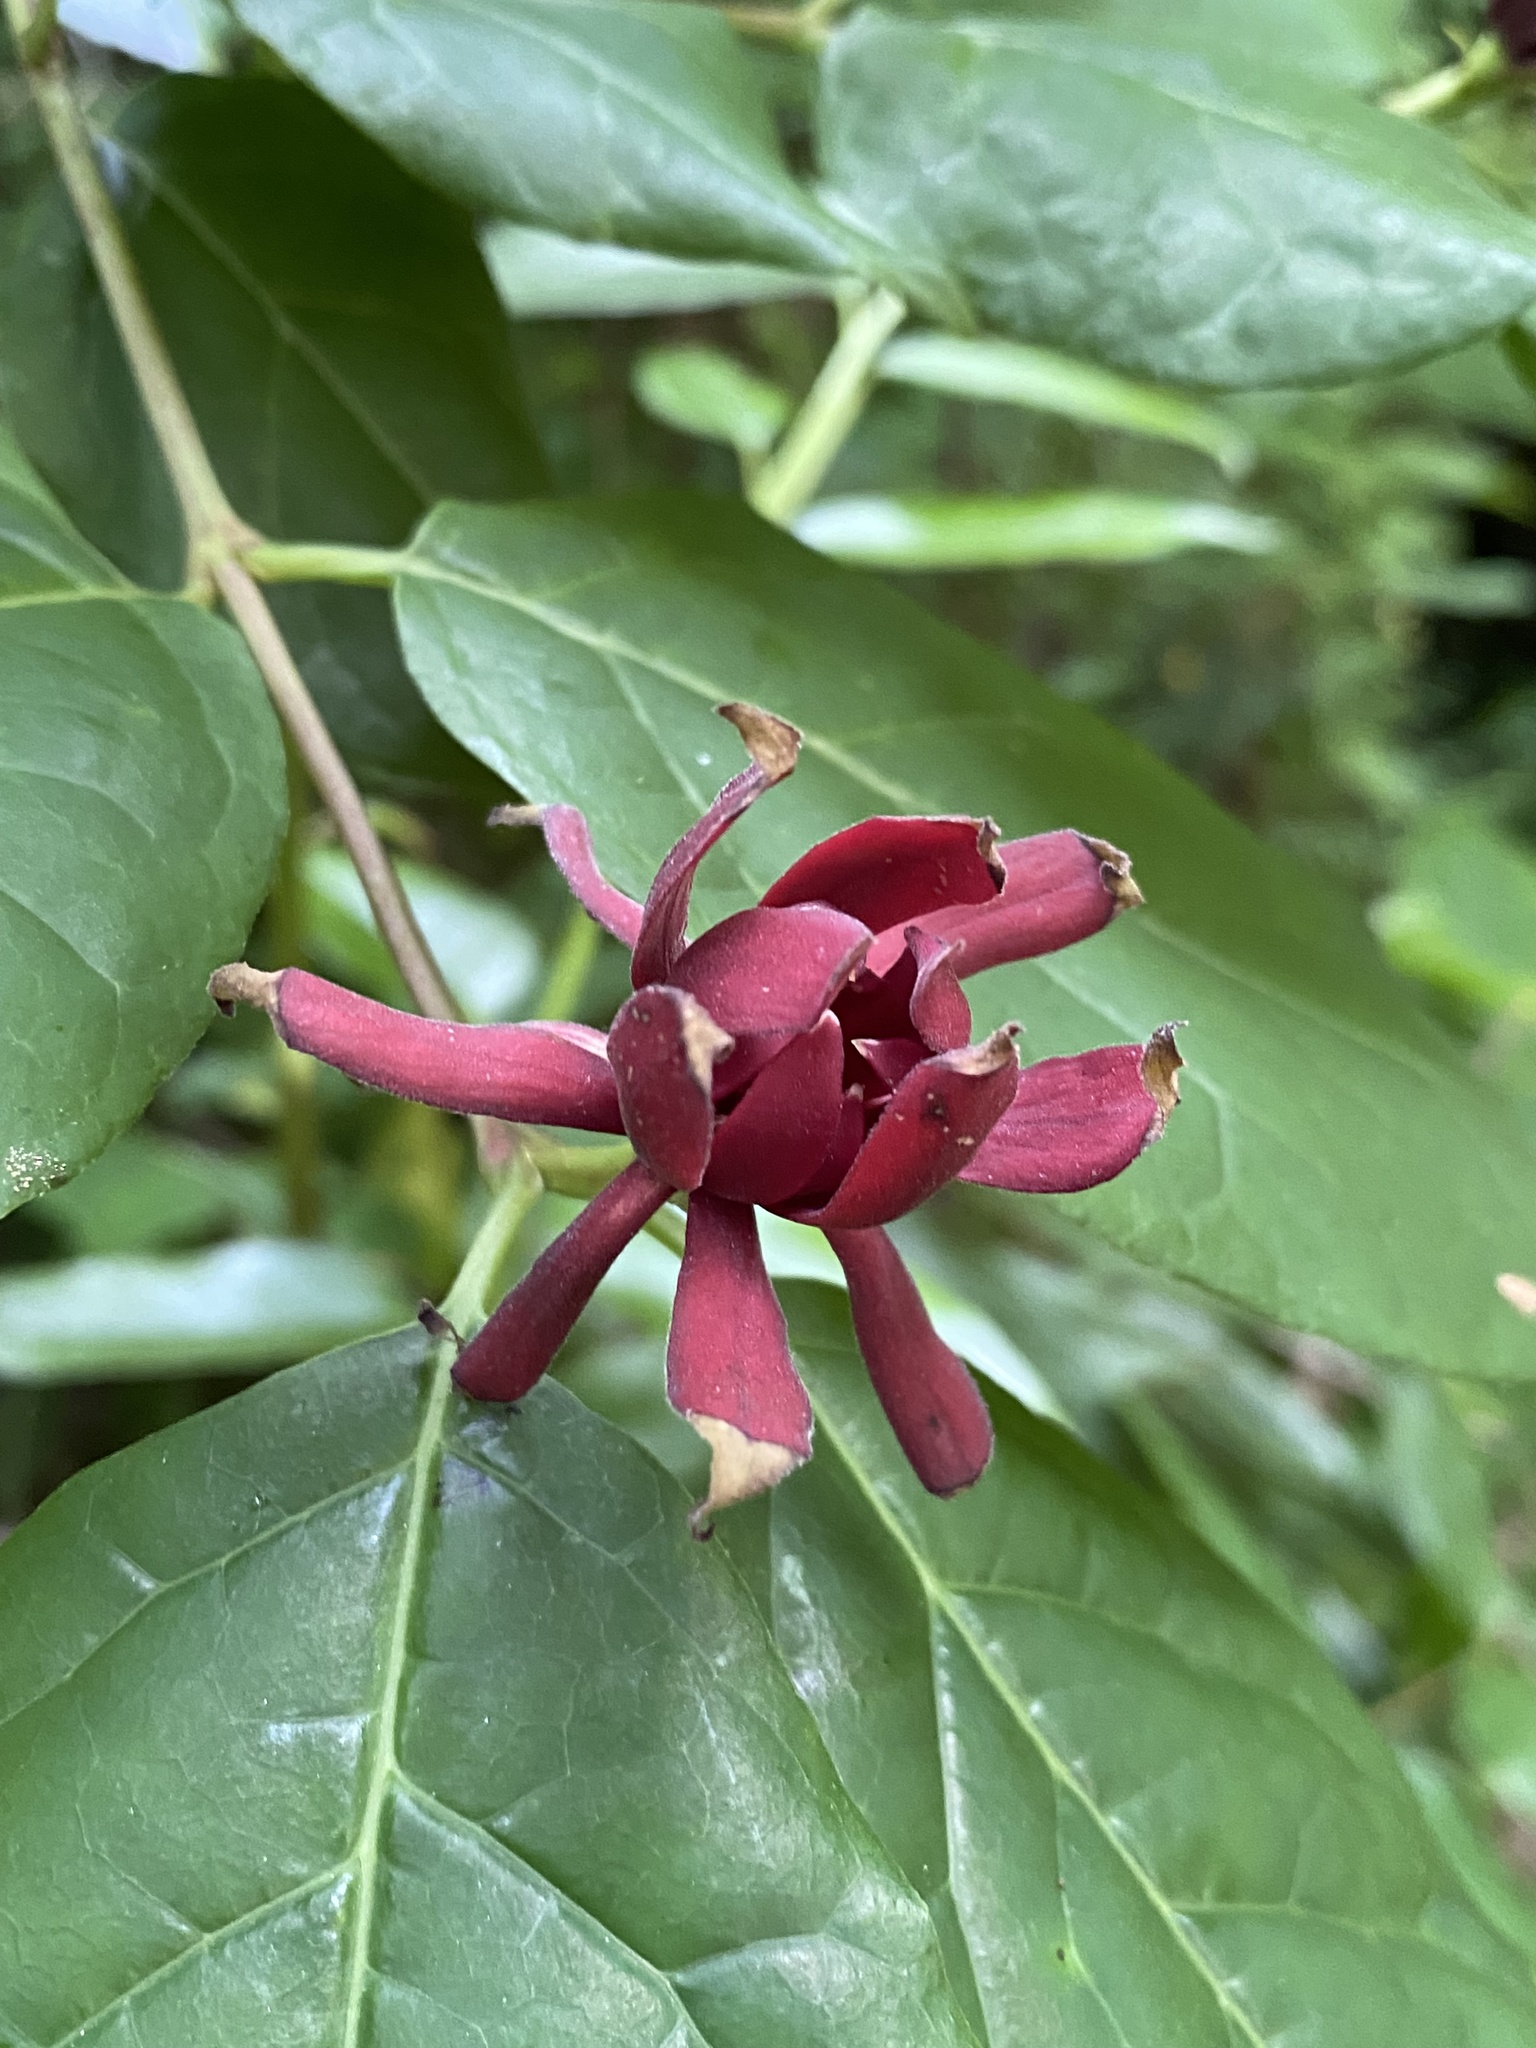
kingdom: Plantae
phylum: Tracheophyta
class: Magnoliopsida
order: Laurales
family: Calycanthaceae
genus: Calycanthus
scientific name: Calycanthus floridus
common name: Carolina-allspice
